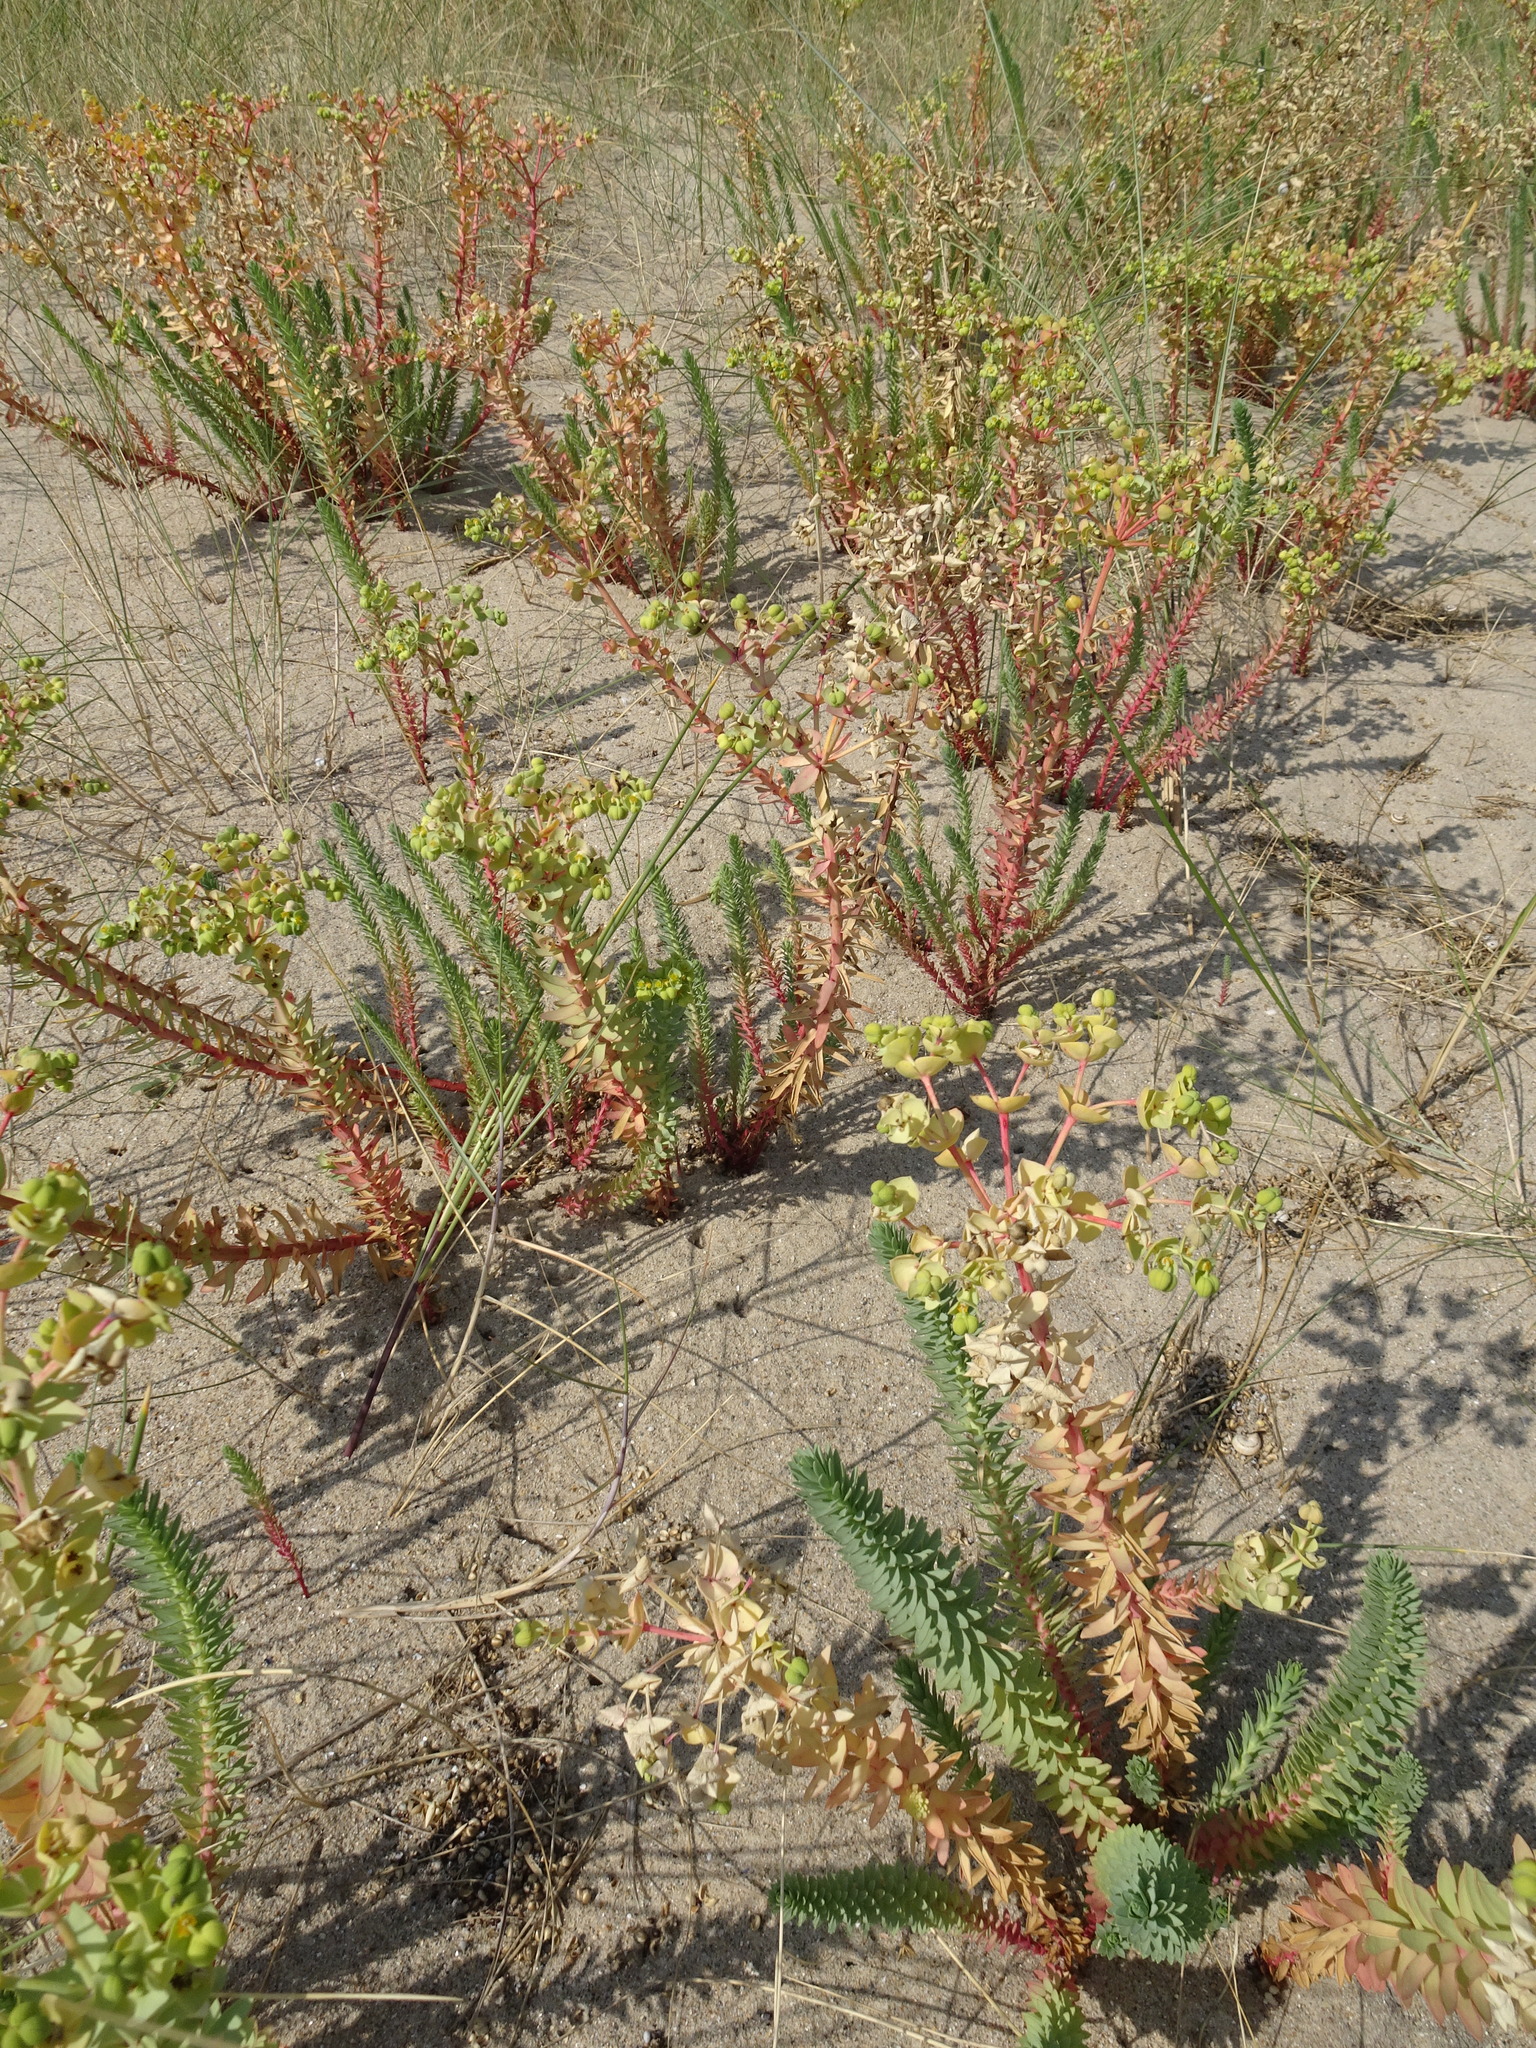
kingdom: Plantae
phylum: Tracheophyta
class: Magnoliopsida
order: Malpighiales
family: Euphorbiaceae
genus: Euphorbia
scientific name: Euphorbia paralias
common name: Sea spurge
